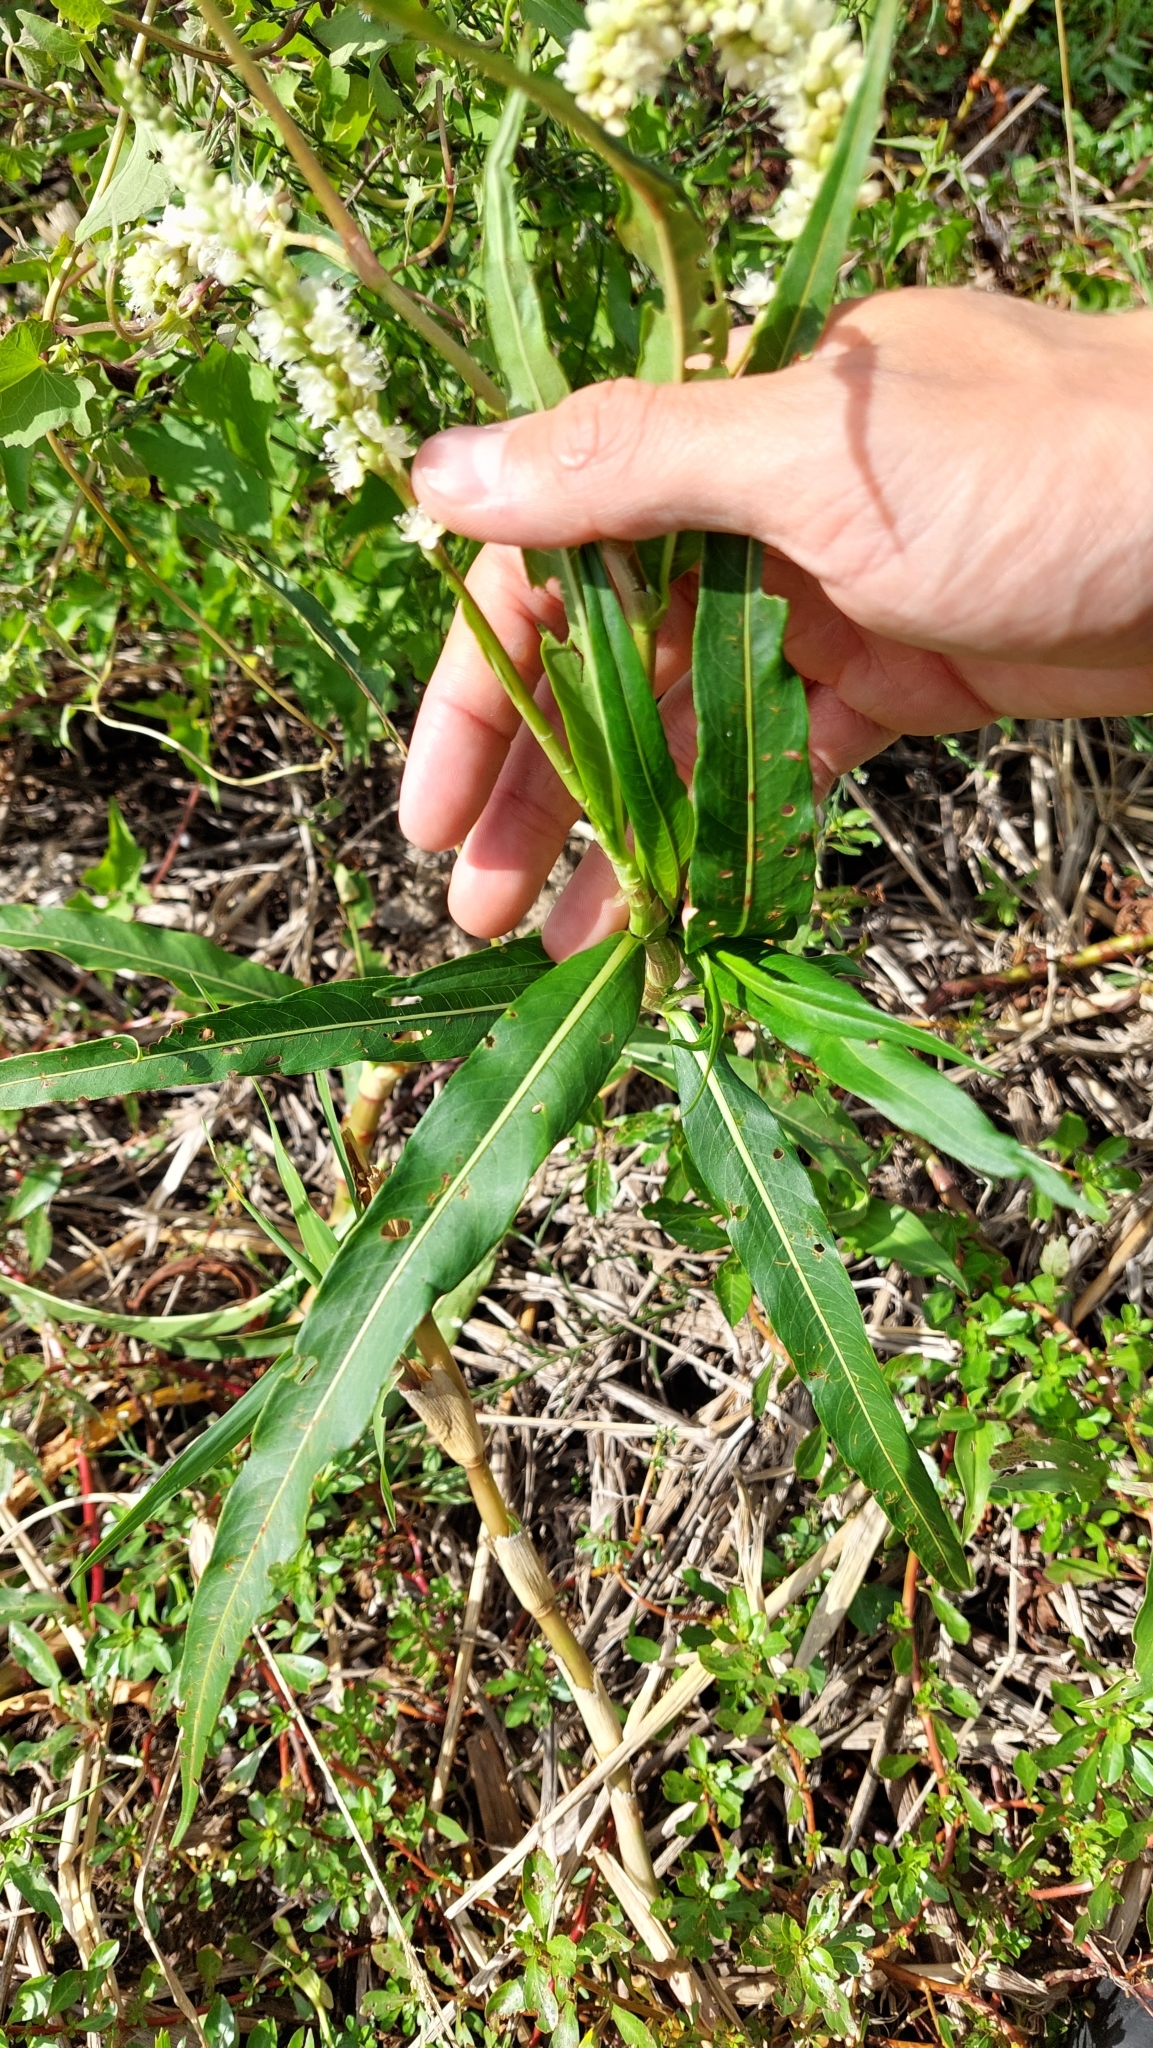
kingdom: Plantae
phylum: Tracheophyta
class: Magnoliopsida
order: Caryophyllales
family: Polygonaceae
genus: Persicaria
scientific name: Persicaria acuminata
